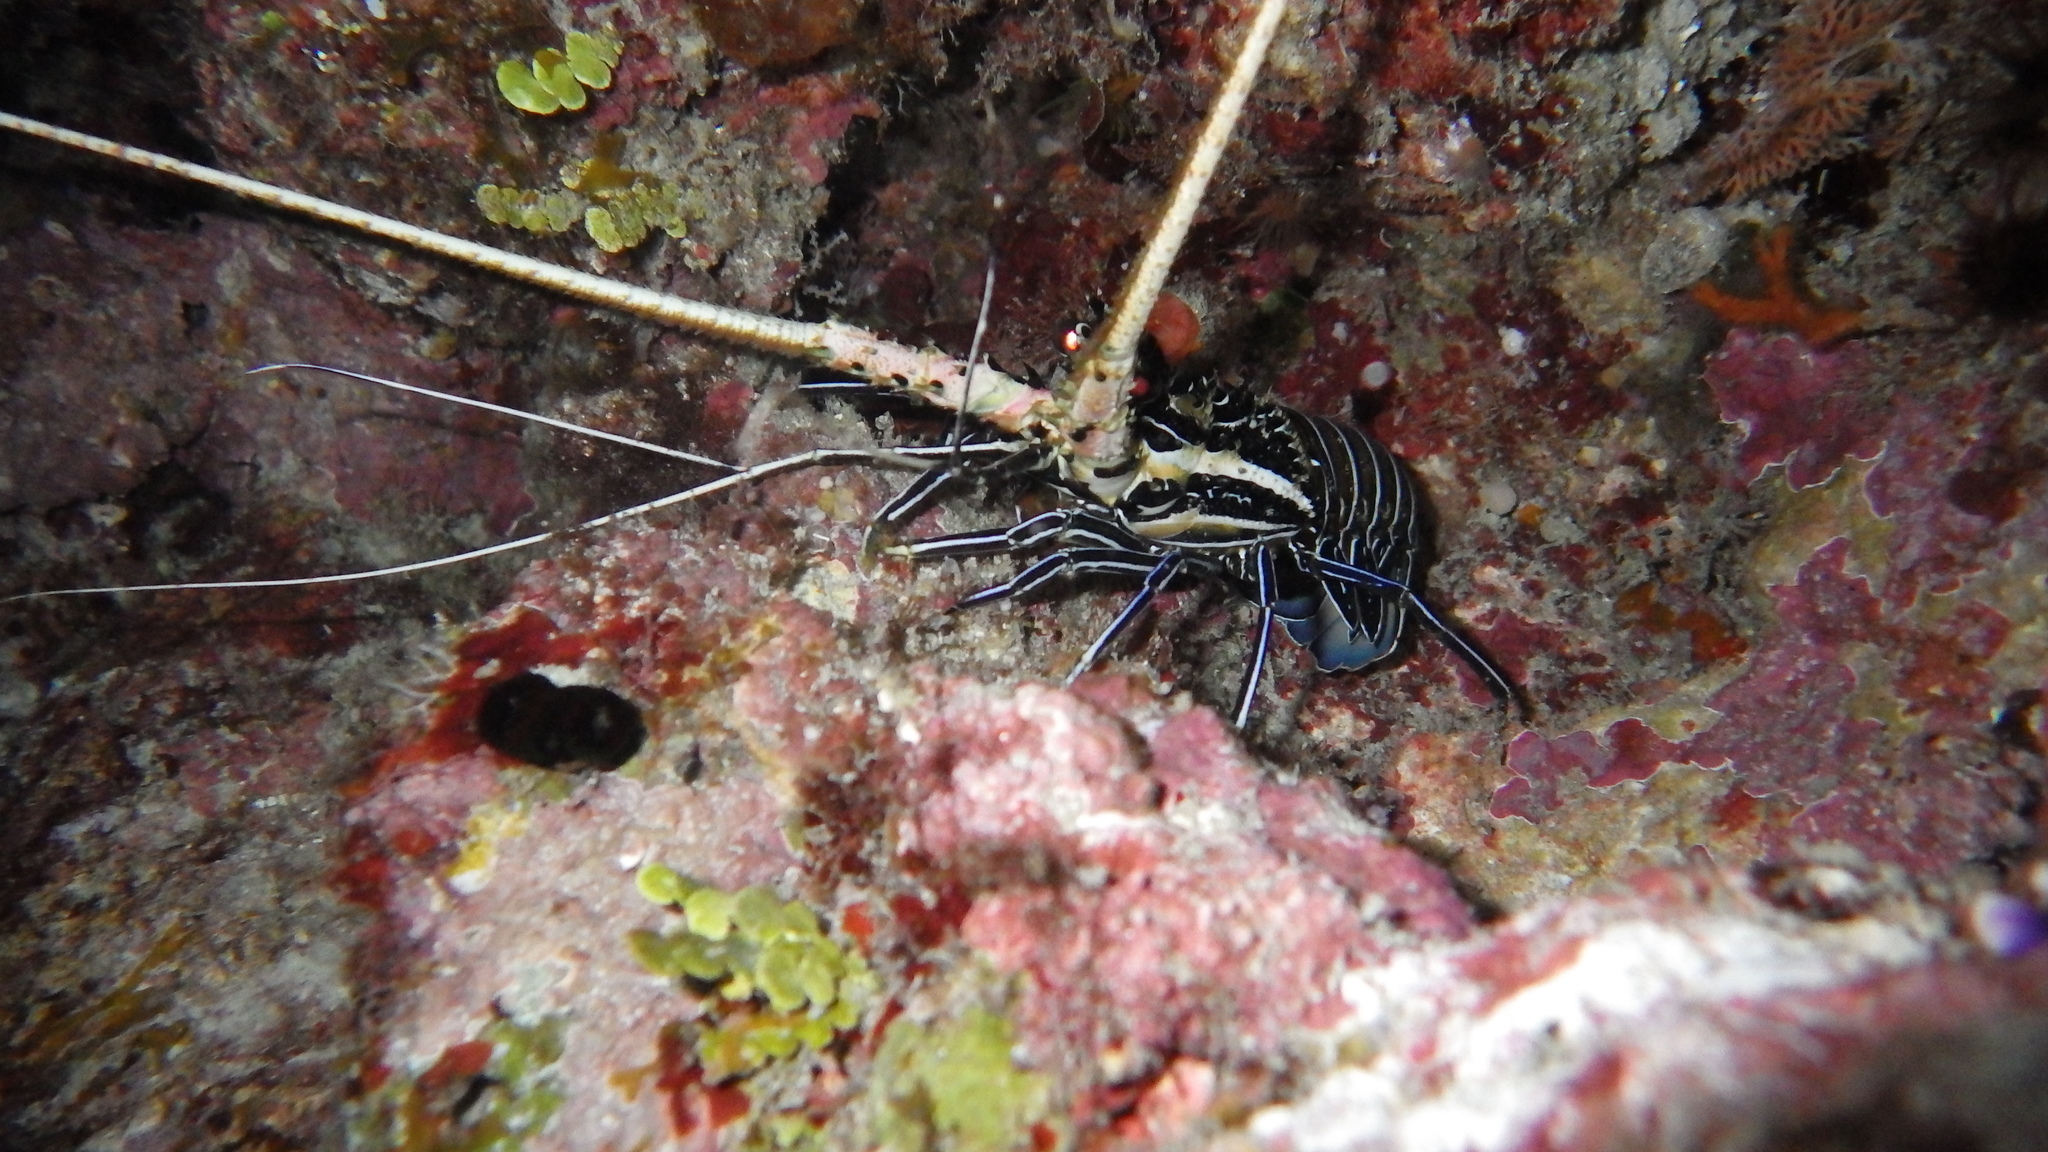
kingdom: Animalia
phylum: Arthropoda
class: Malacostraca
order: Decapoda
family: Palinuridae
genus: Panulirus
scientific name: Panulirus versicolor
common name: Painted spiny lobster
